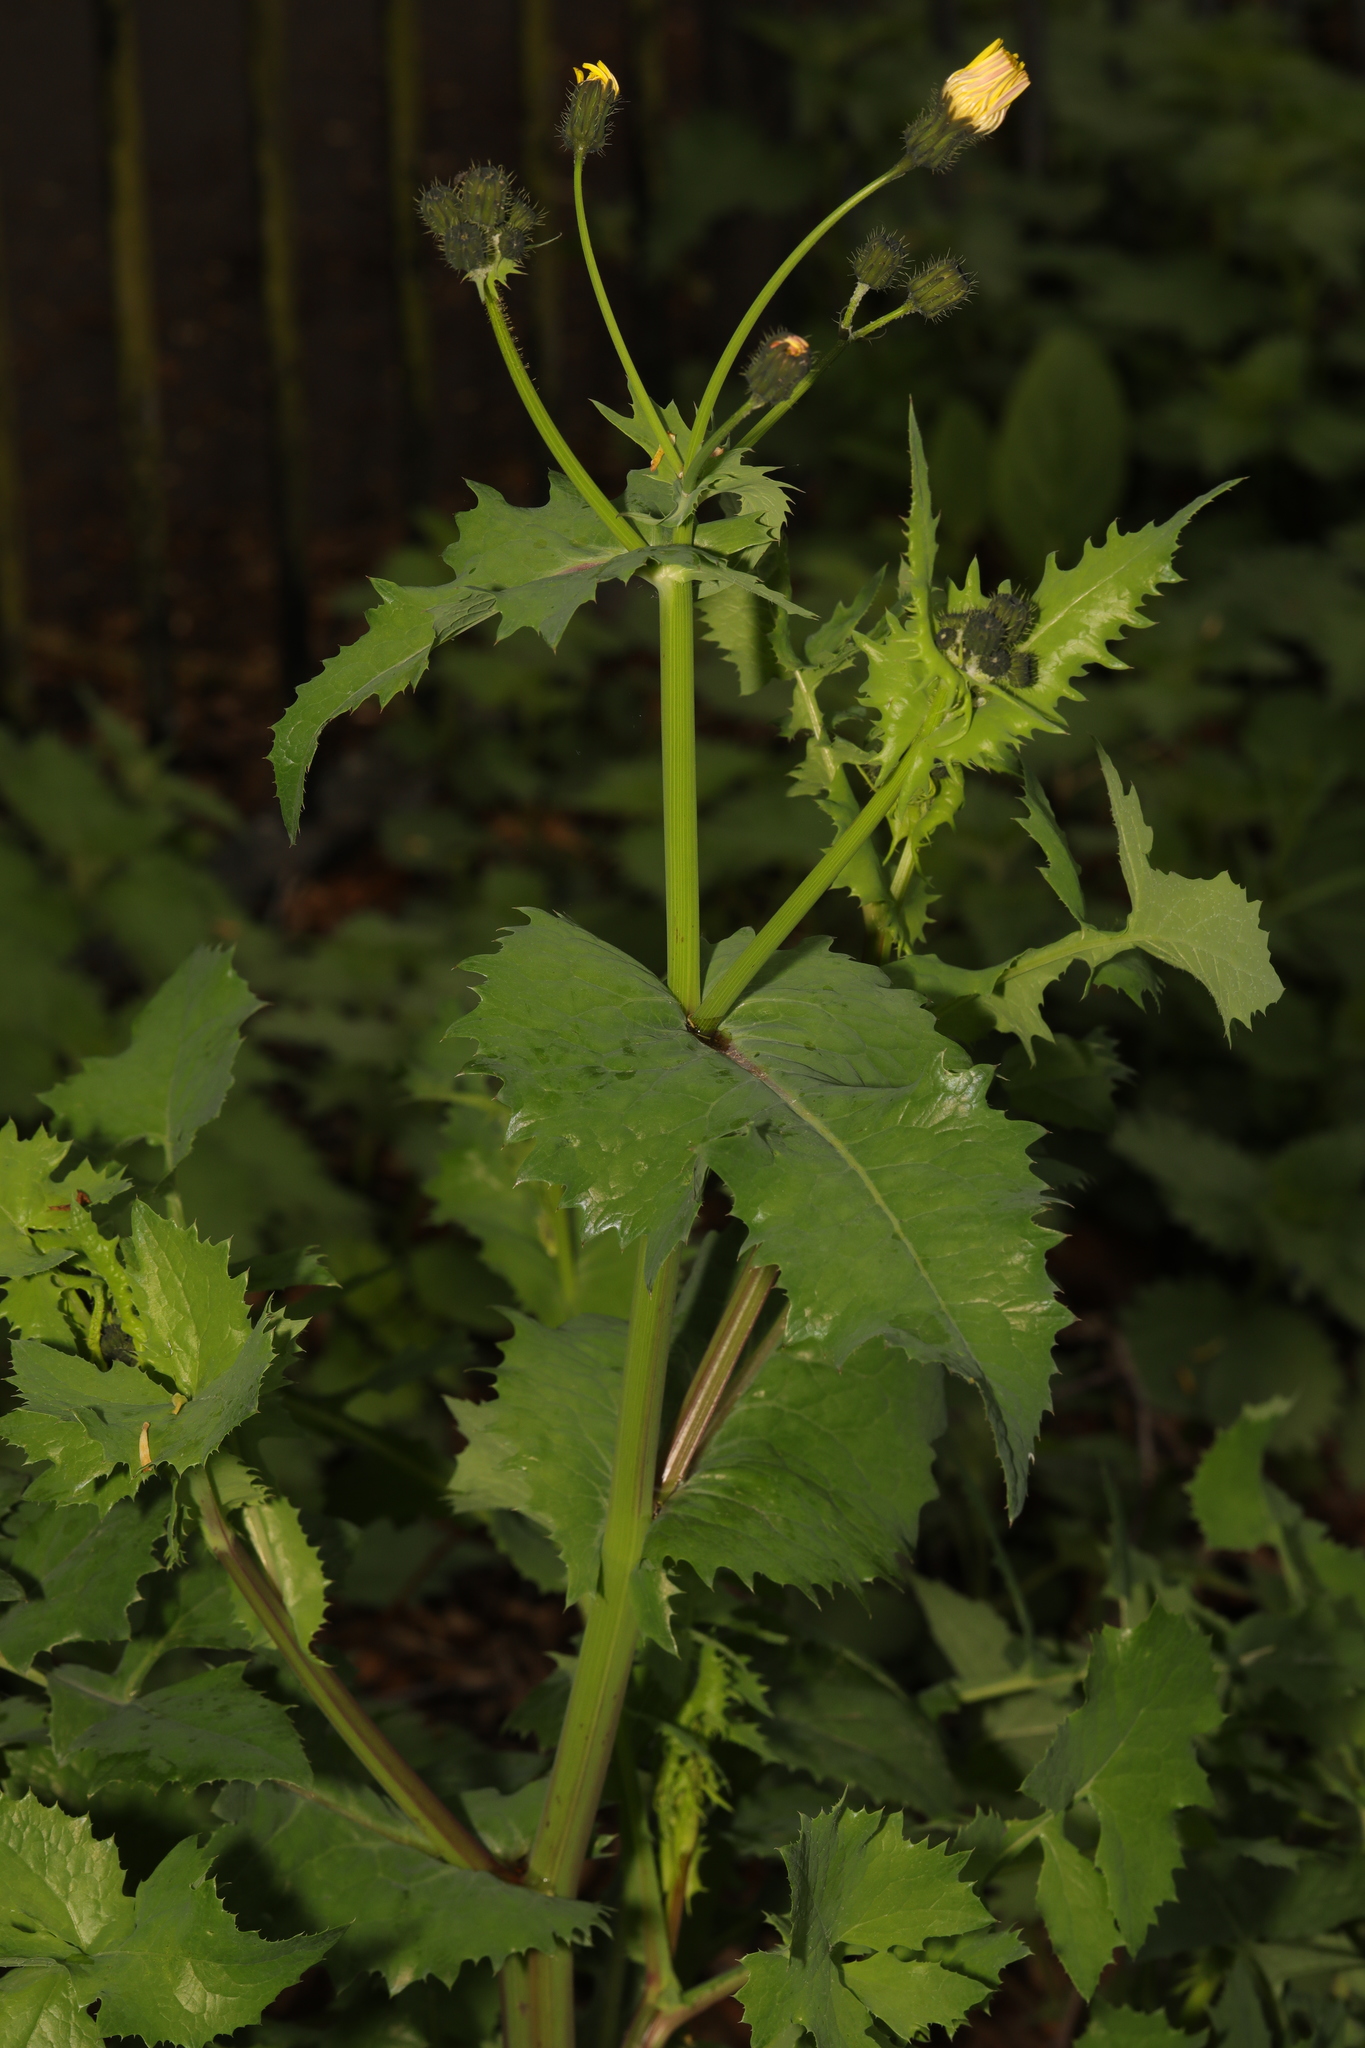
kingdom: Plantae
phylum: Tracheophyta
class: Magnoliopsida
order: Asterales
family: Asteraceae
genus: Sonchus
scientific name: Sonchus oleraceus
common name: Common sowthistle
